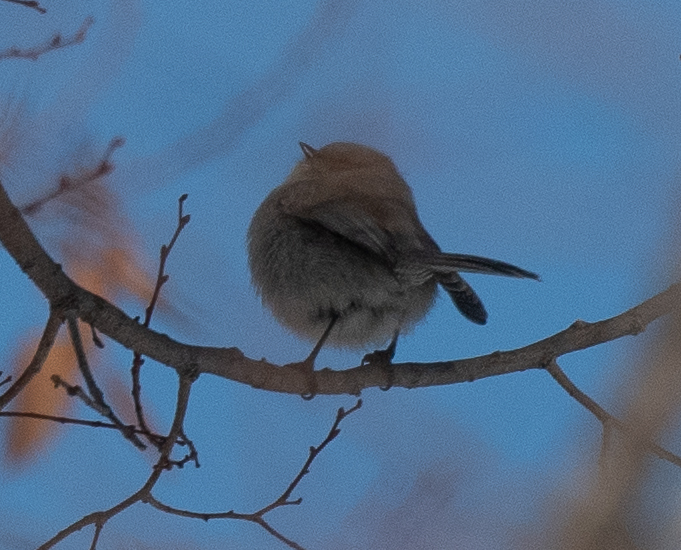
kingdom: Animalia
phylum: Chordata
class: Aves
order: Passeriformes
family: Aegithalidae
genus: Psaltriparus
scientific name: Psaltriparus minimus
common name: American bushtit
